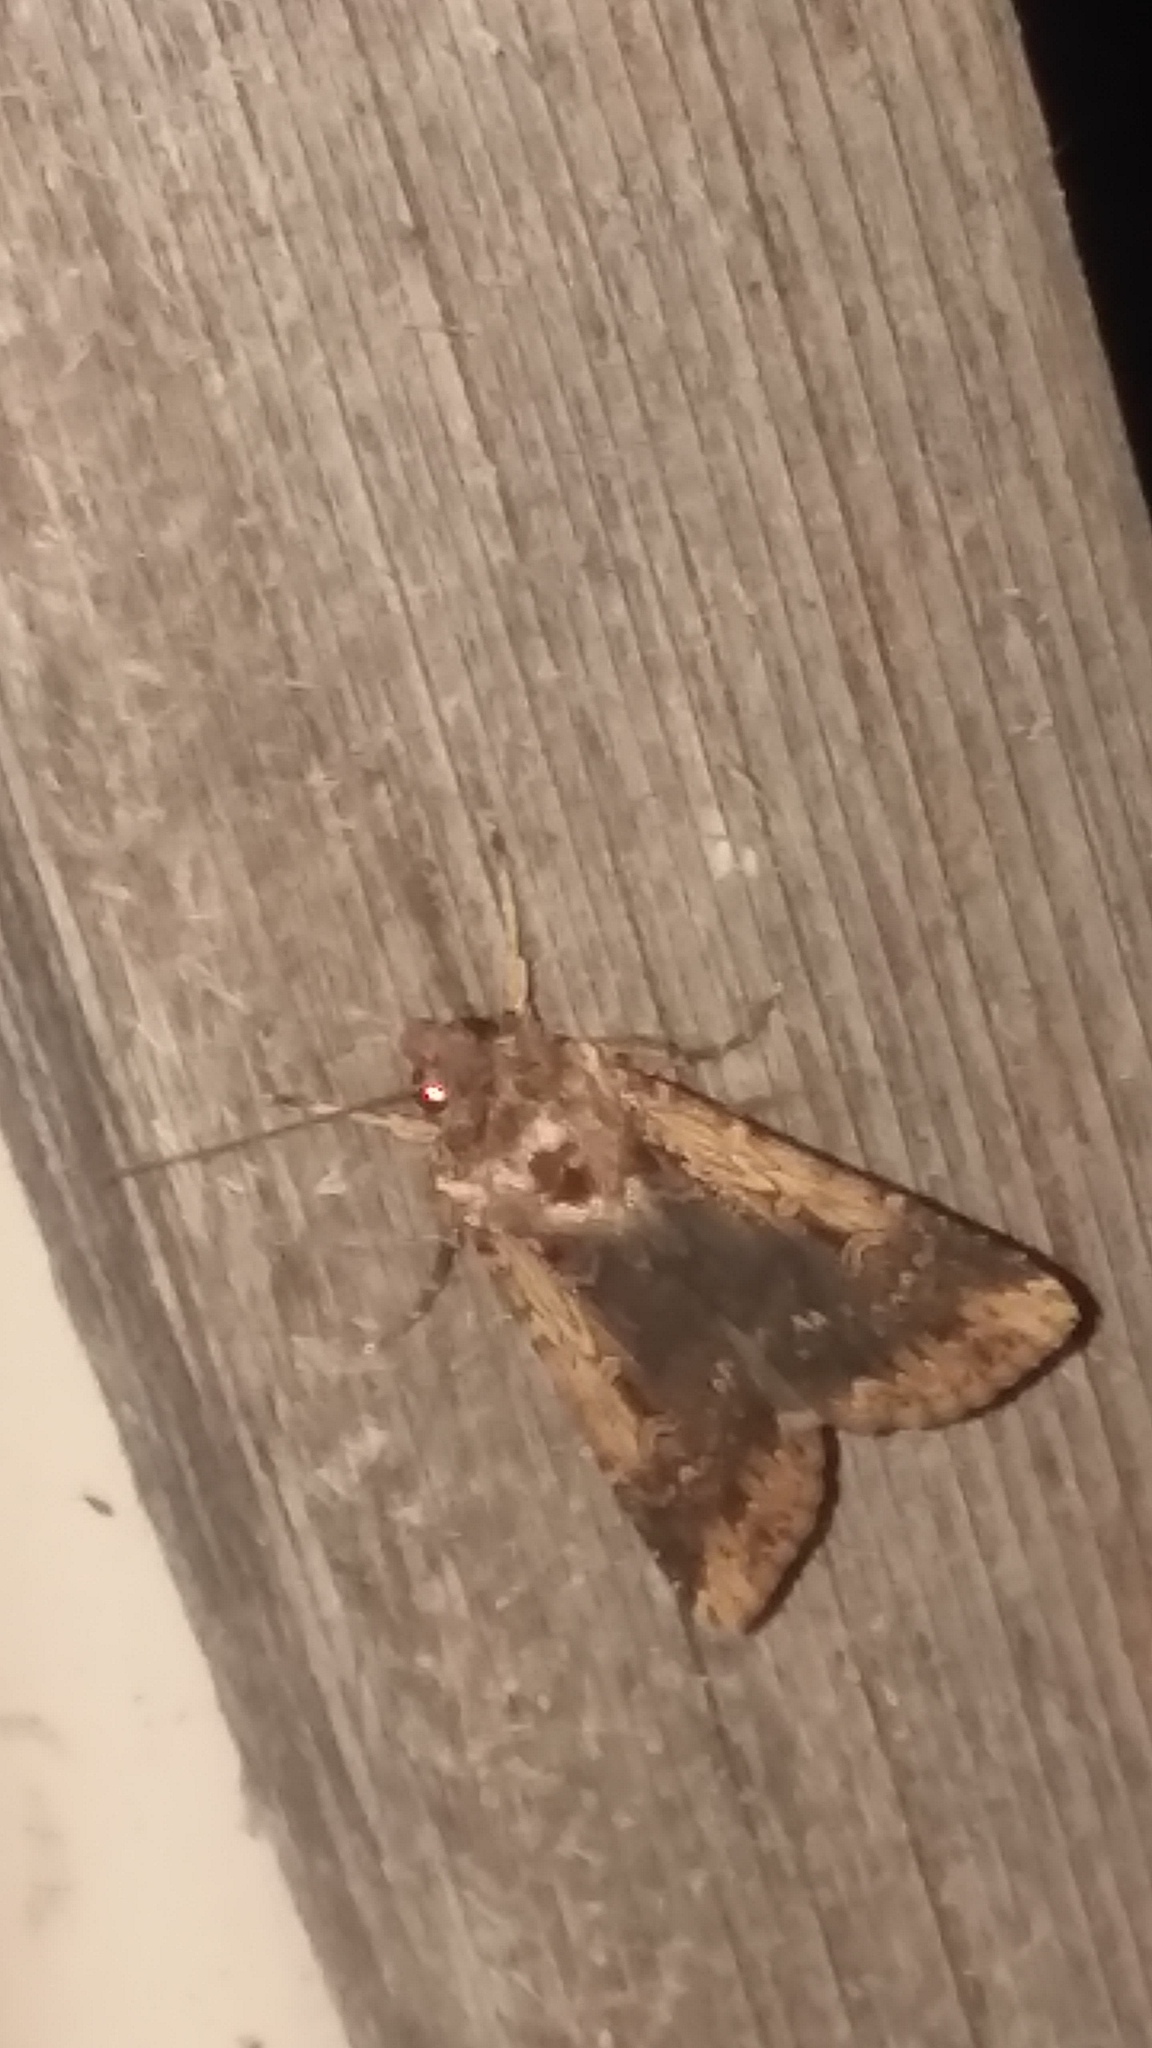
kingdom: Animalia
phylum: Arthropoda
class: Insecta
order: Lepidoptera
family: Noctuidae
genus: Feltia
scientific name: Feltia subterranea
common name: Granulate cutworm
